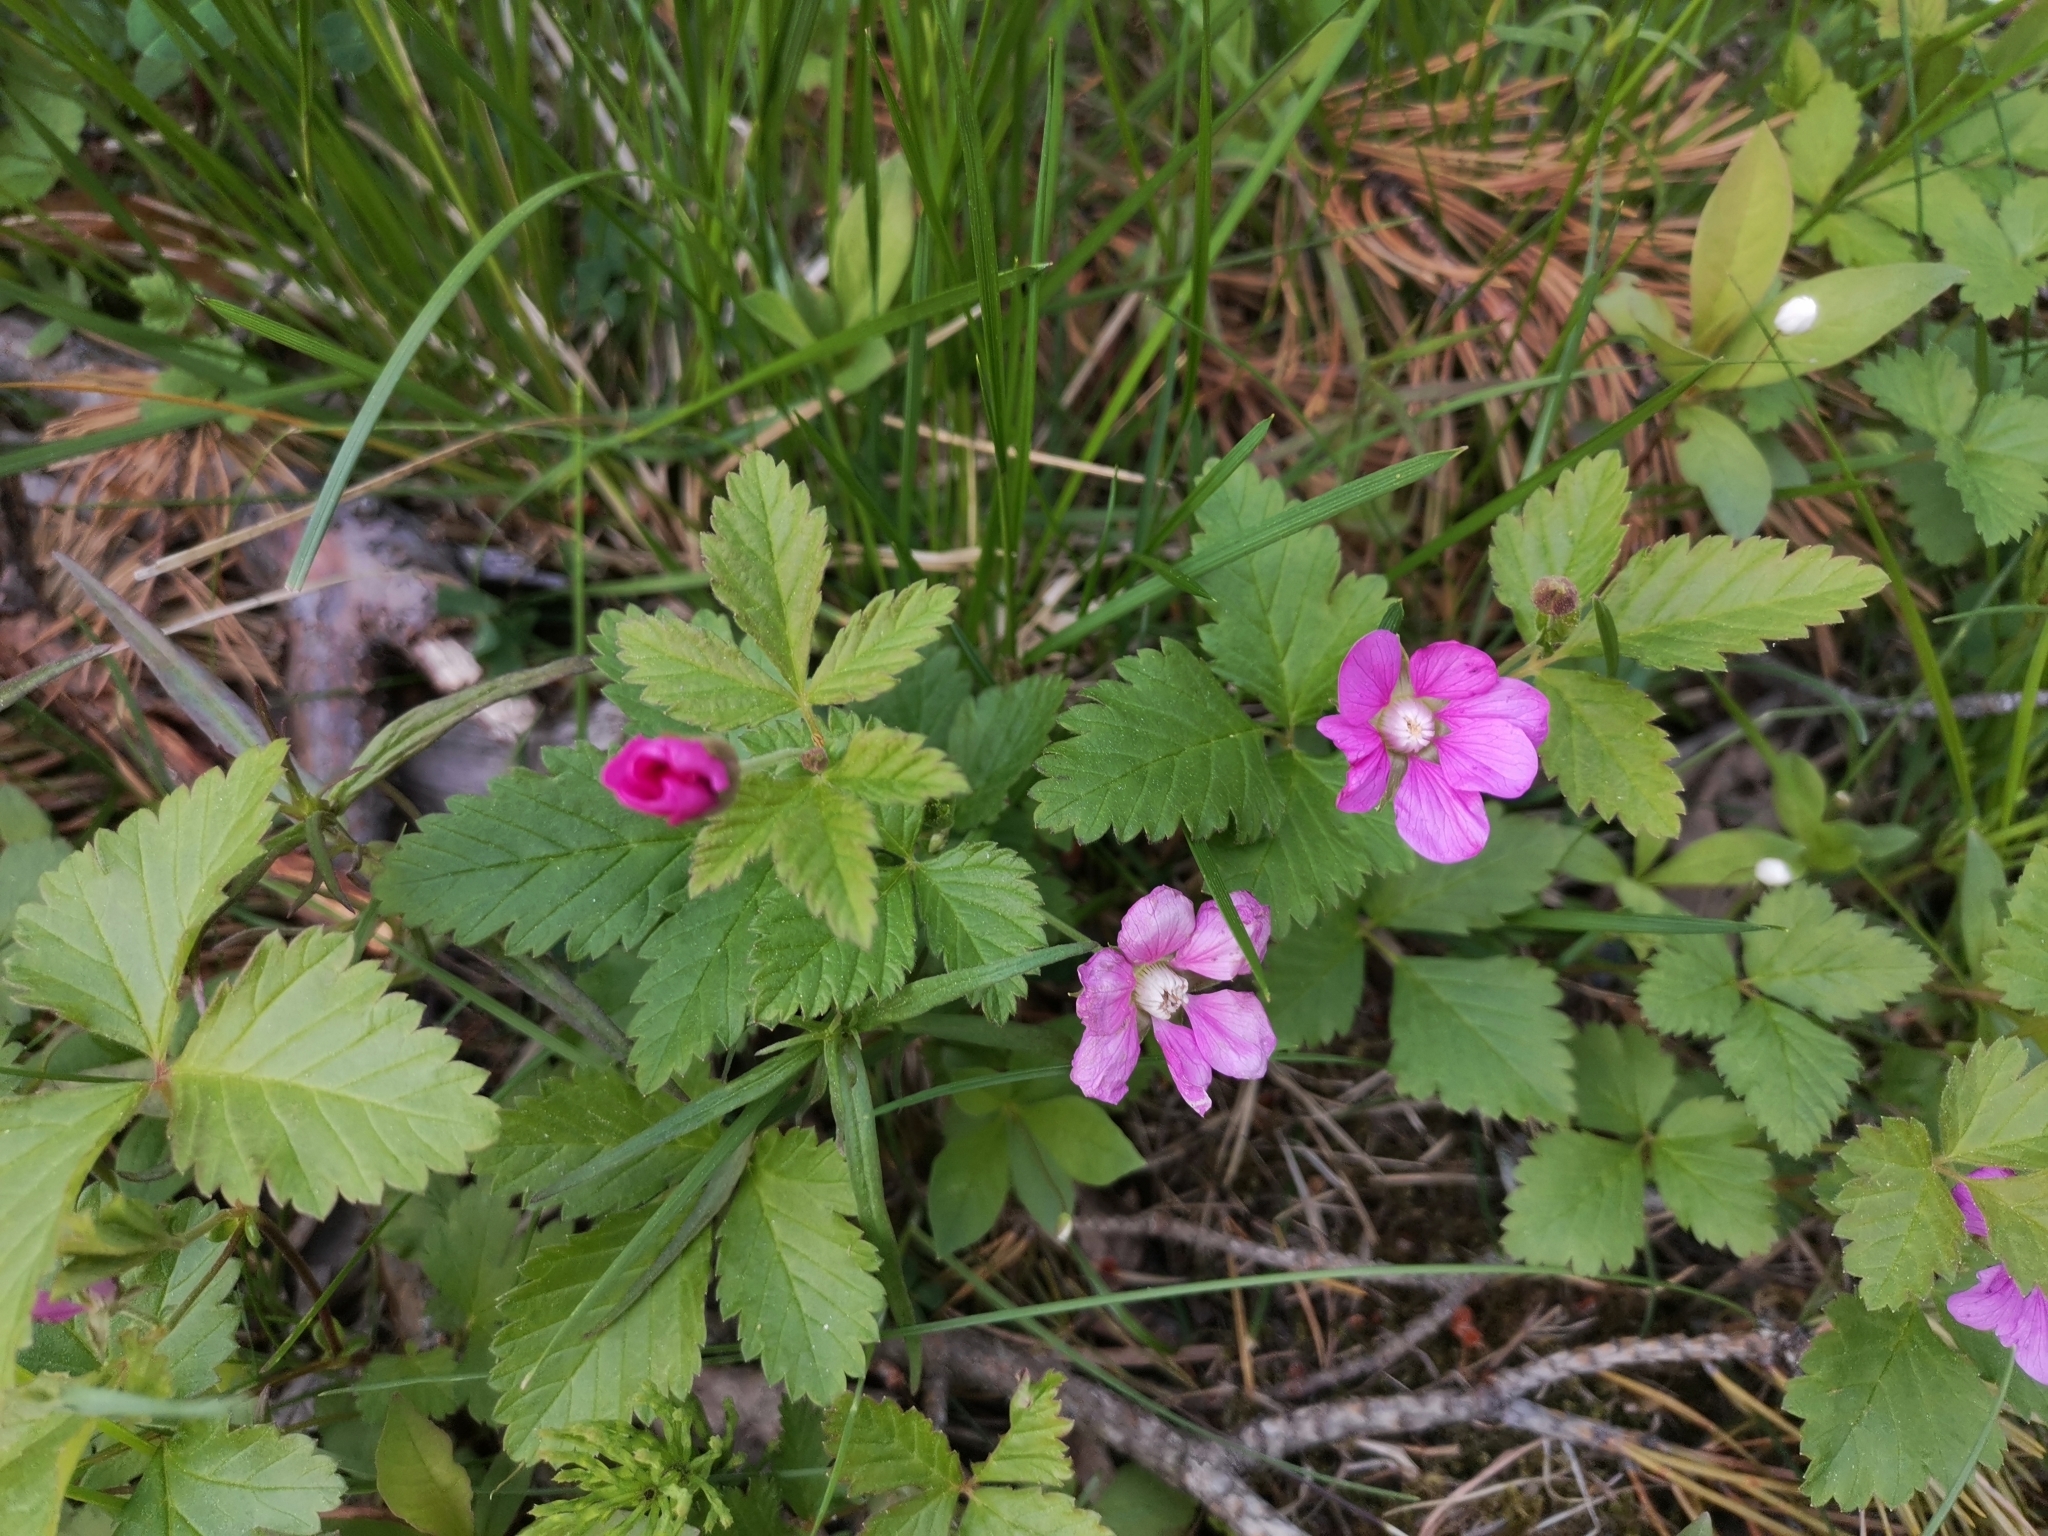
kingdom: Plantae
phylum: Tracheophyta
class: Magnoliopsida
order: Rosales
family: Rosaceae
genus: Rubus
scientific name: Rubus arcticus
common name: Arctic bramble
